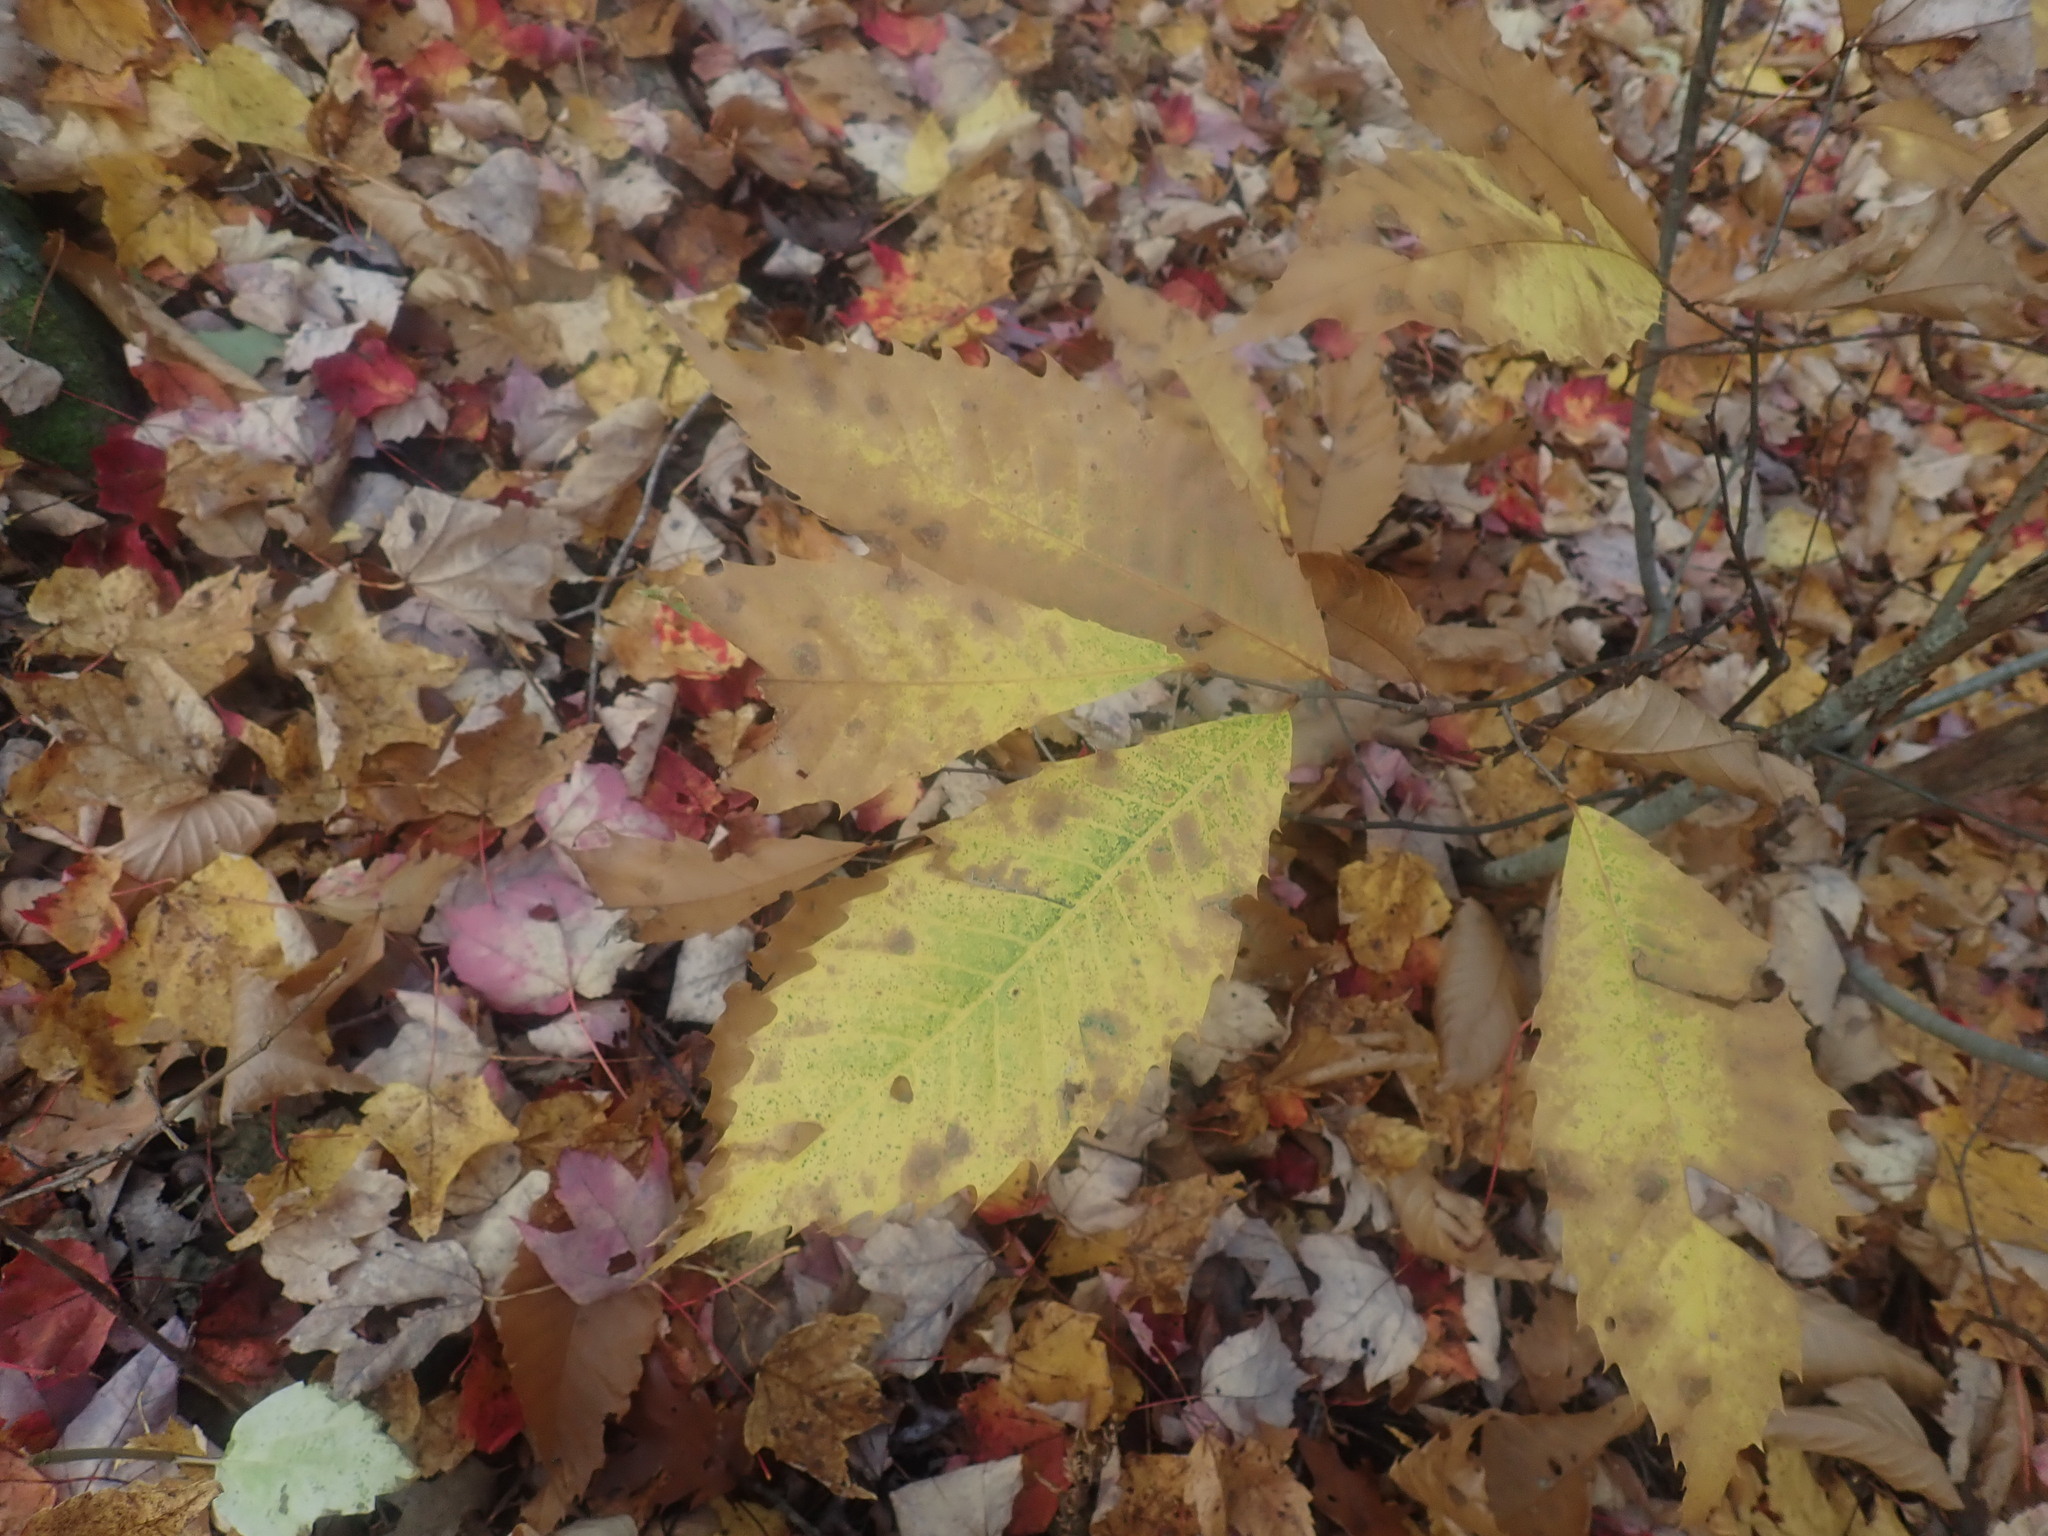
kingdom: Plantae
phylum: Tracheophyta
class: Magnoliopsida
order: Fagales
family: Fagaceae
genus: Castanea
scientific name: Castanea dentata
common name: American chestnut
